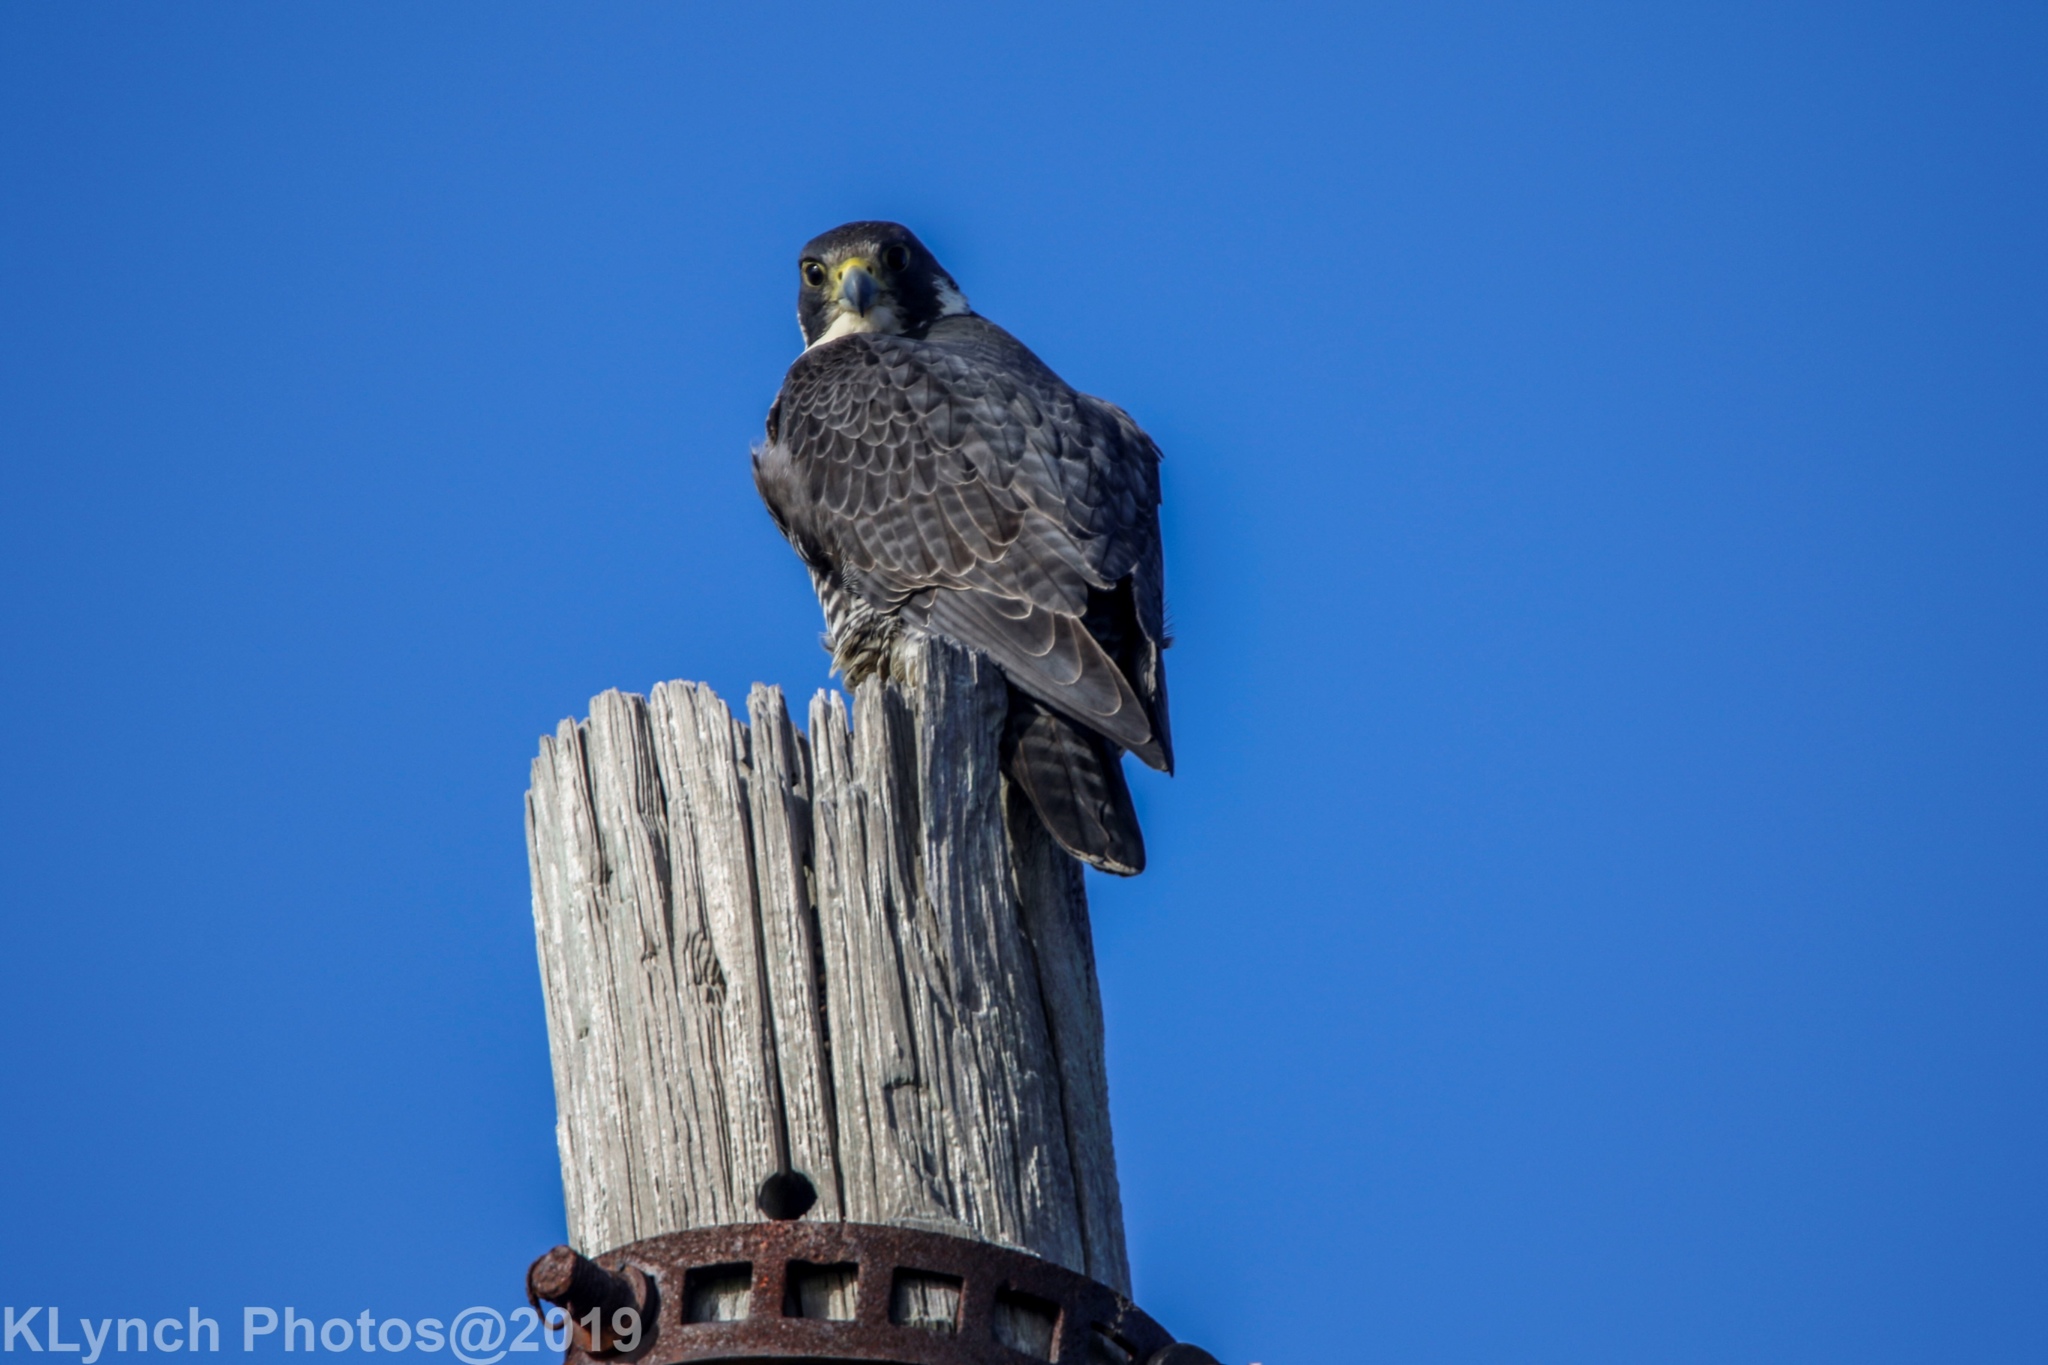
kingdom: Animalia
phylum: Chordata
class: Aves
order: Falconiformes
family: Falconidae
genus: Falco
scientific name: Falco peregrinus
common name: Peregrine falcon
